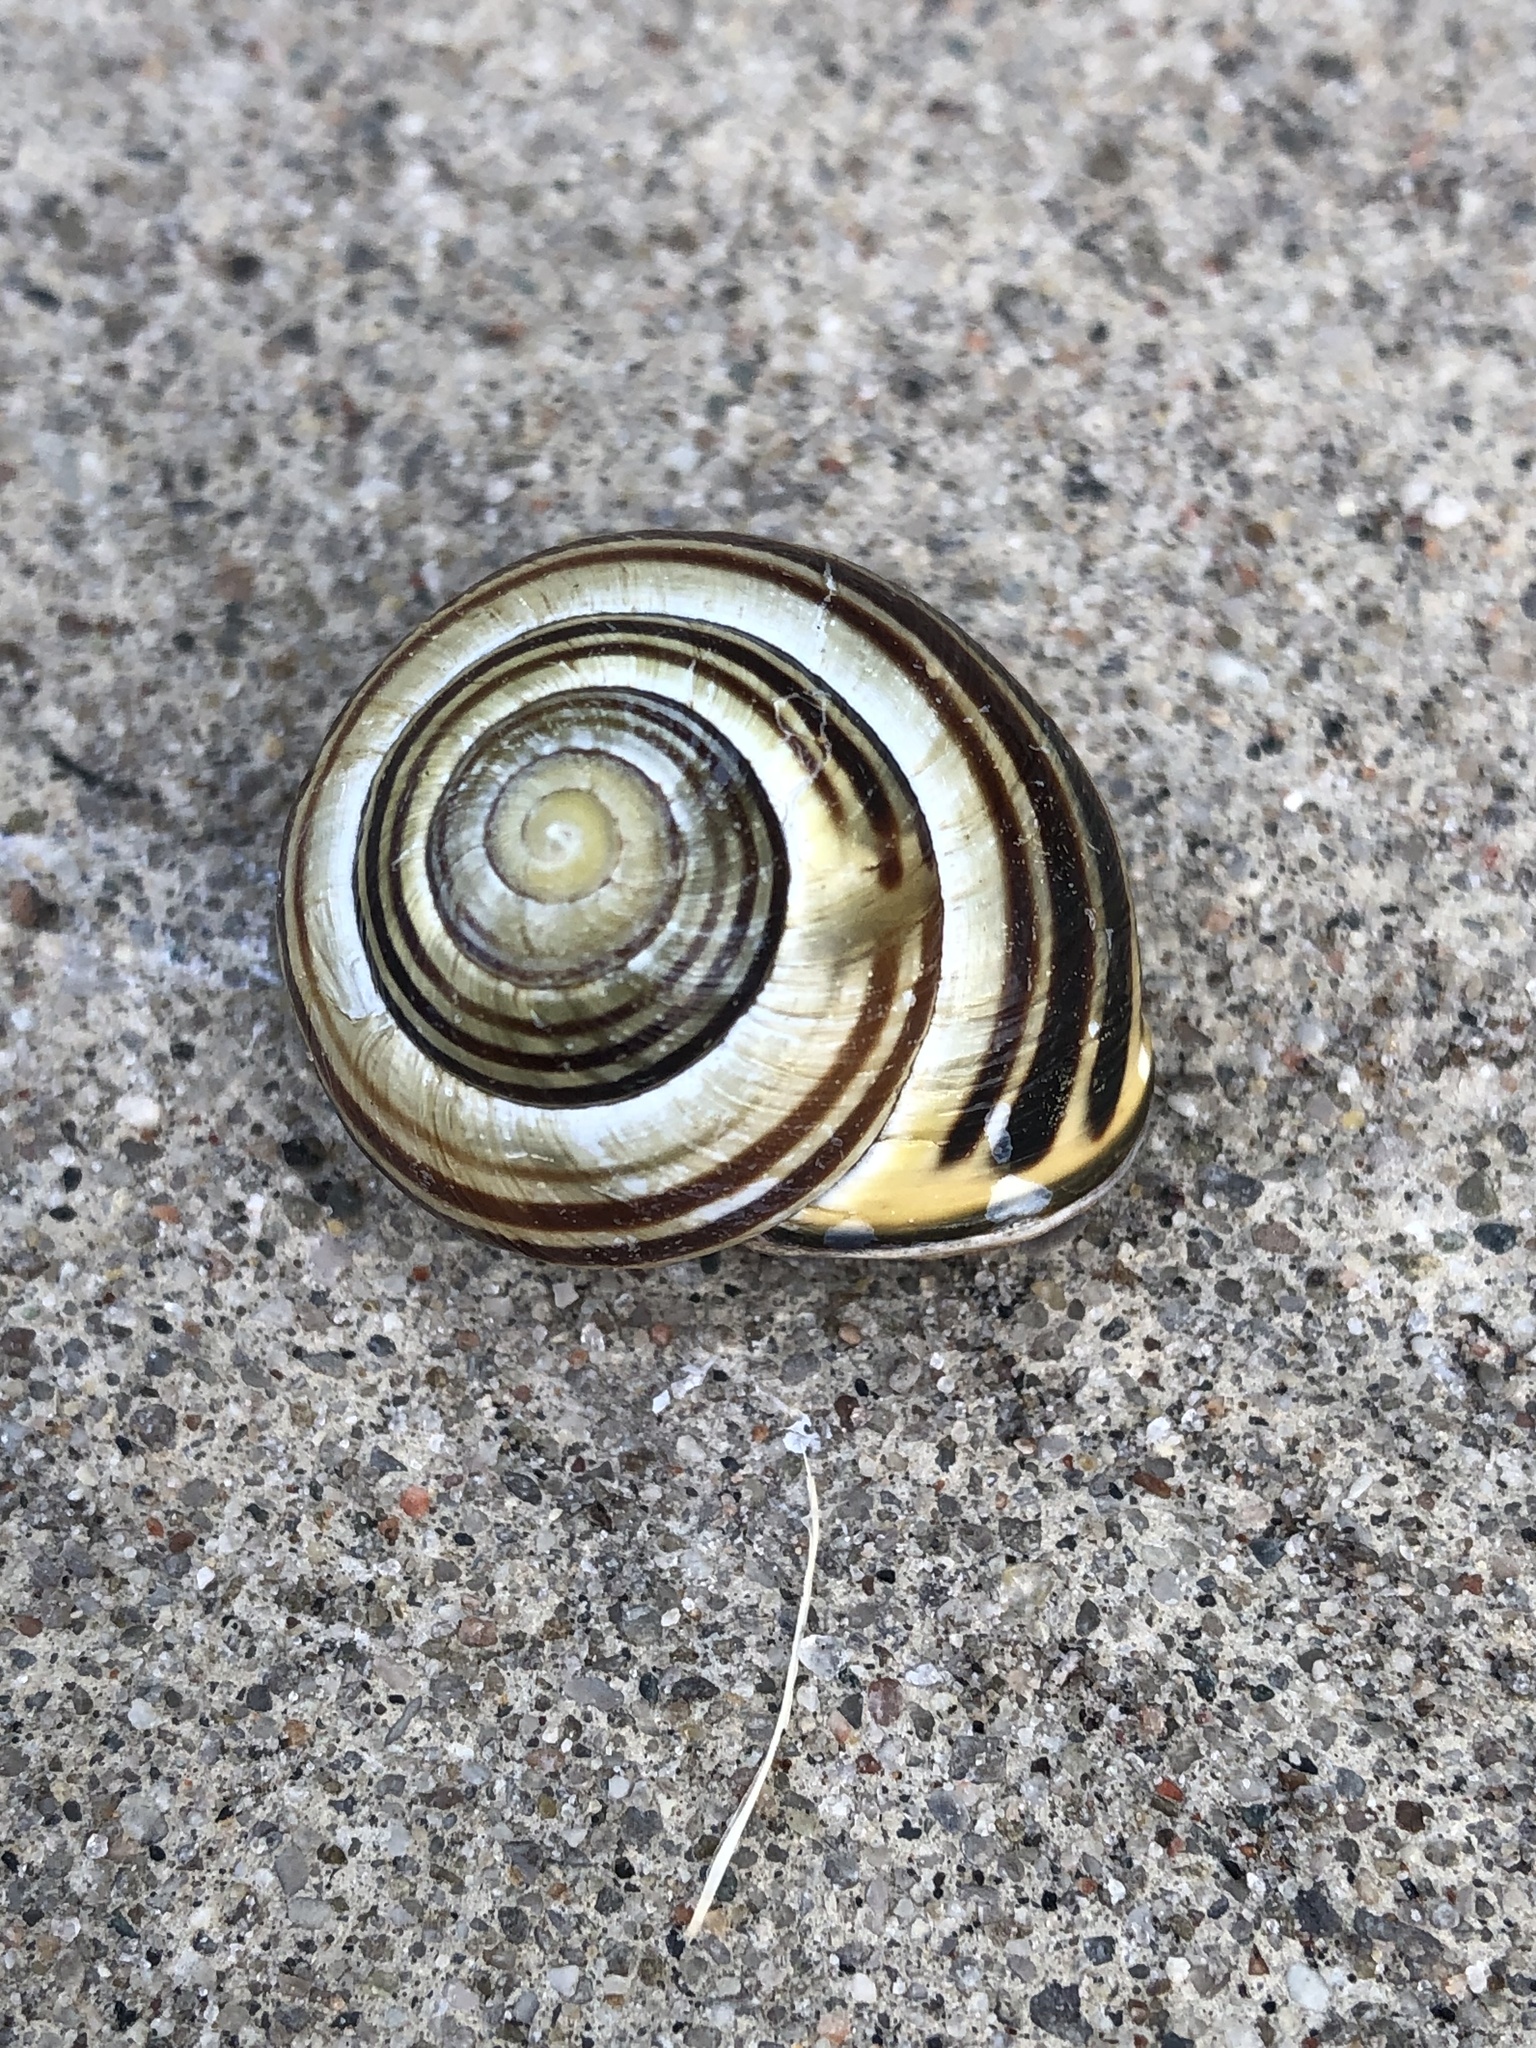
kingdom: Animalia
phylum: Mollusca
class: Gastropoda
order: Stylommatophora
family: Helicidae
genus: Cepaea
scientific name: Cepaea nemoralis
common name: Grovesnail
